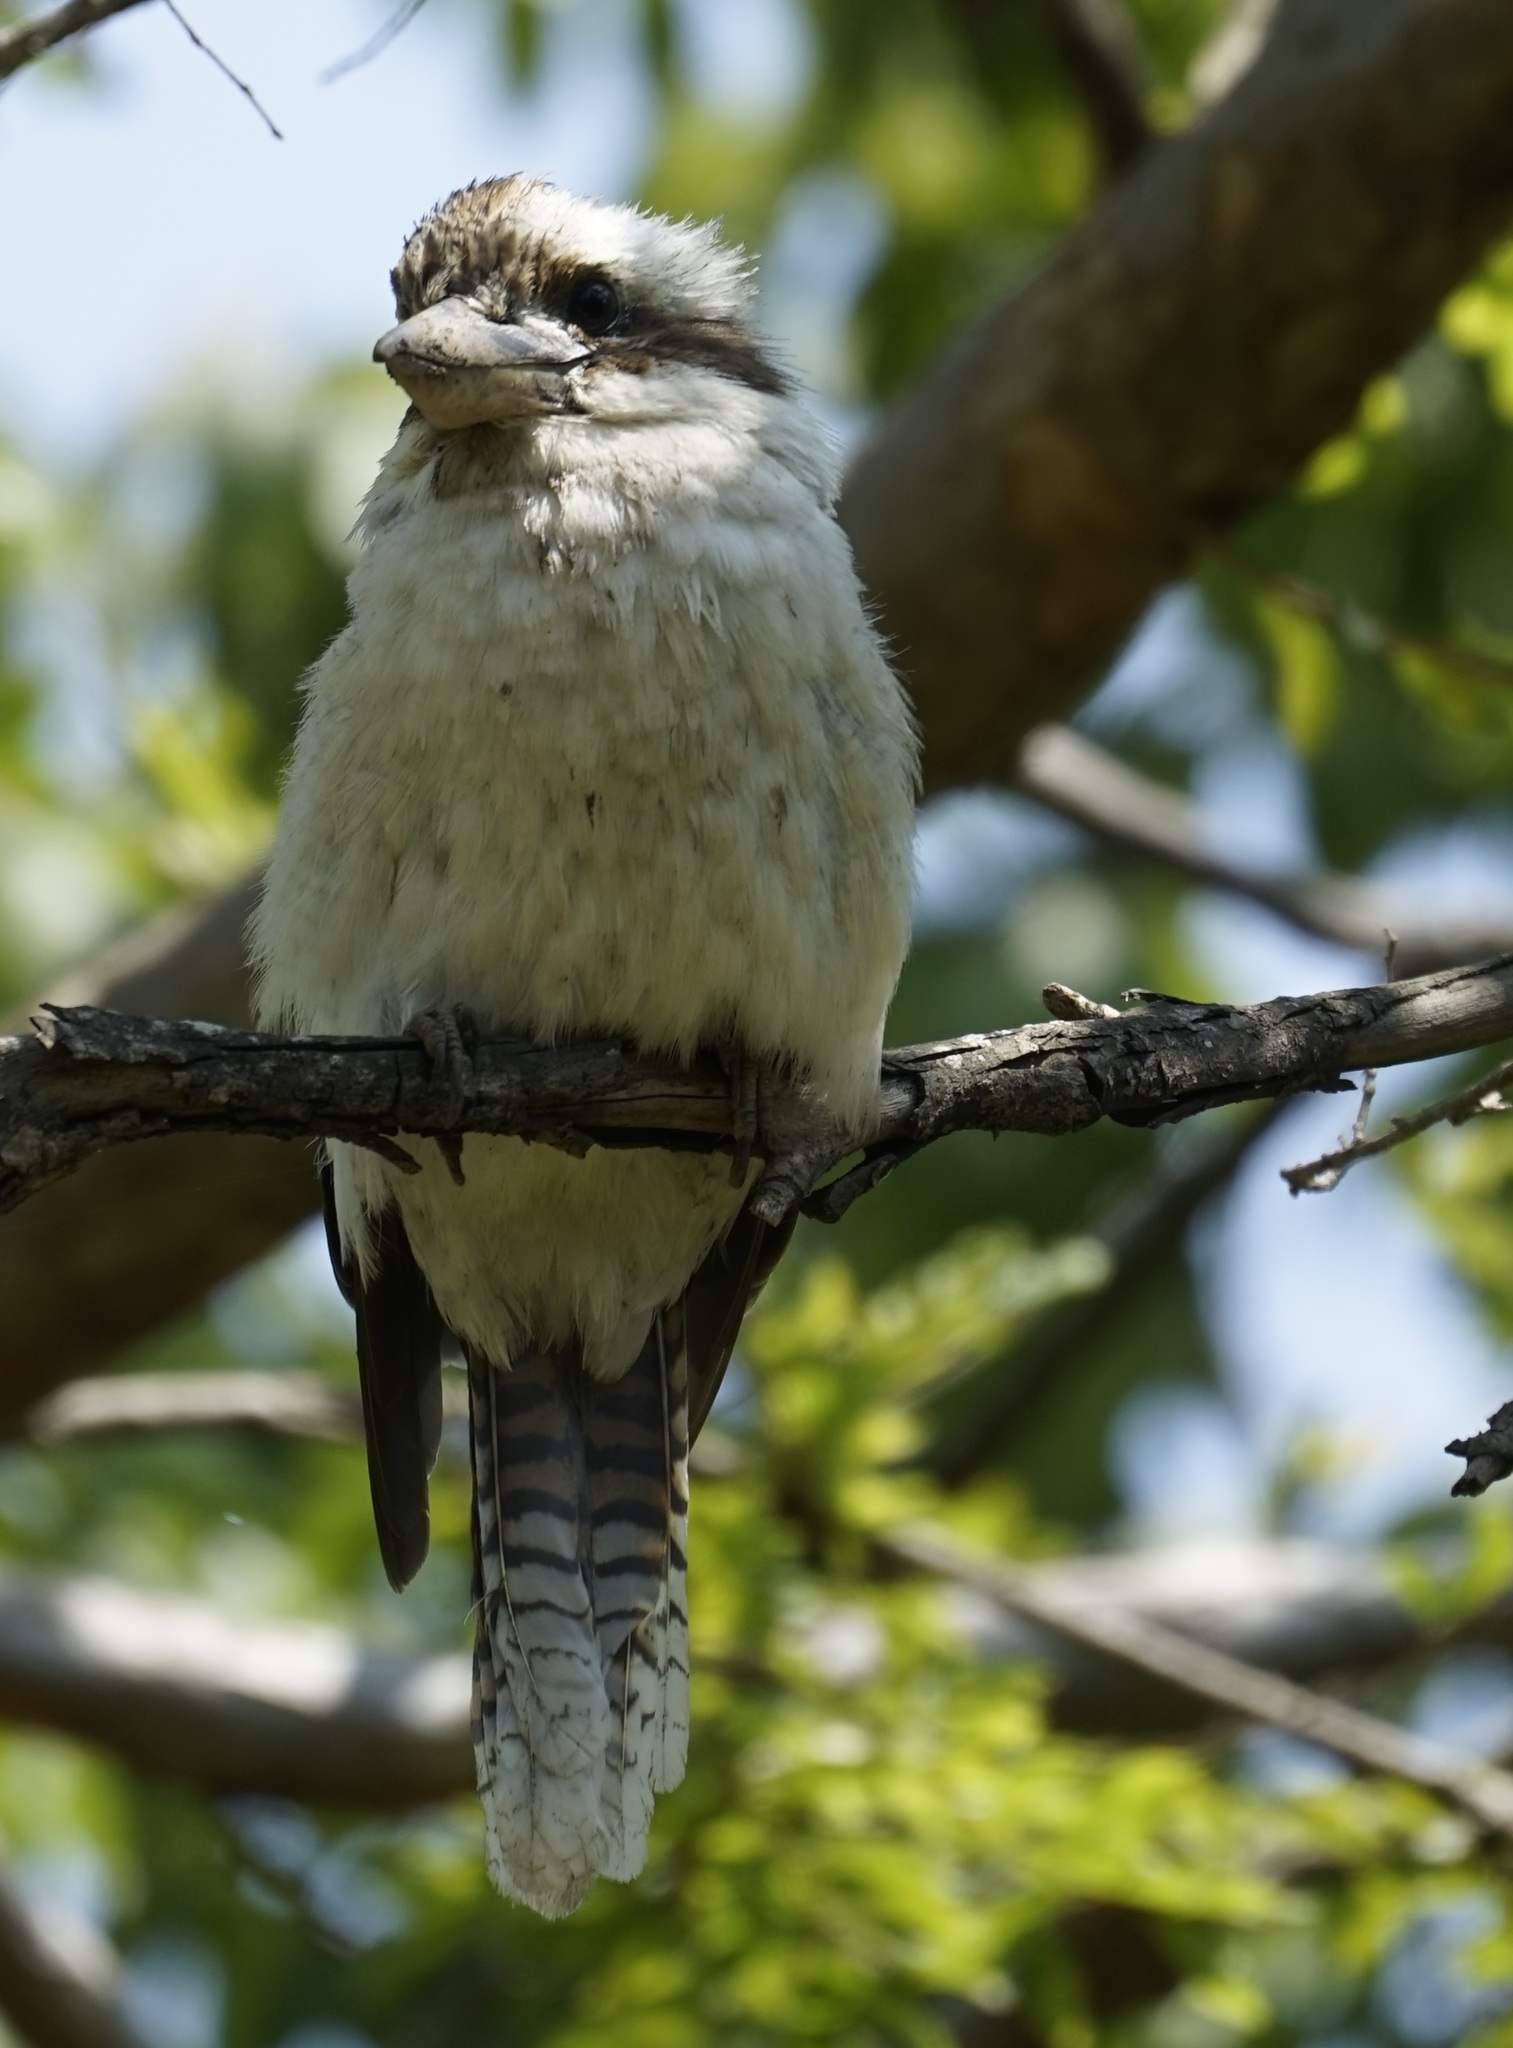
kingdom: Animalia
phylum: Chordata
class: Aves
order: Coraciiformes
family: Alcedinidae
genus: Dacelo
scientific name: Dacelo novaeguineae
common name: Laughing kookaburra
